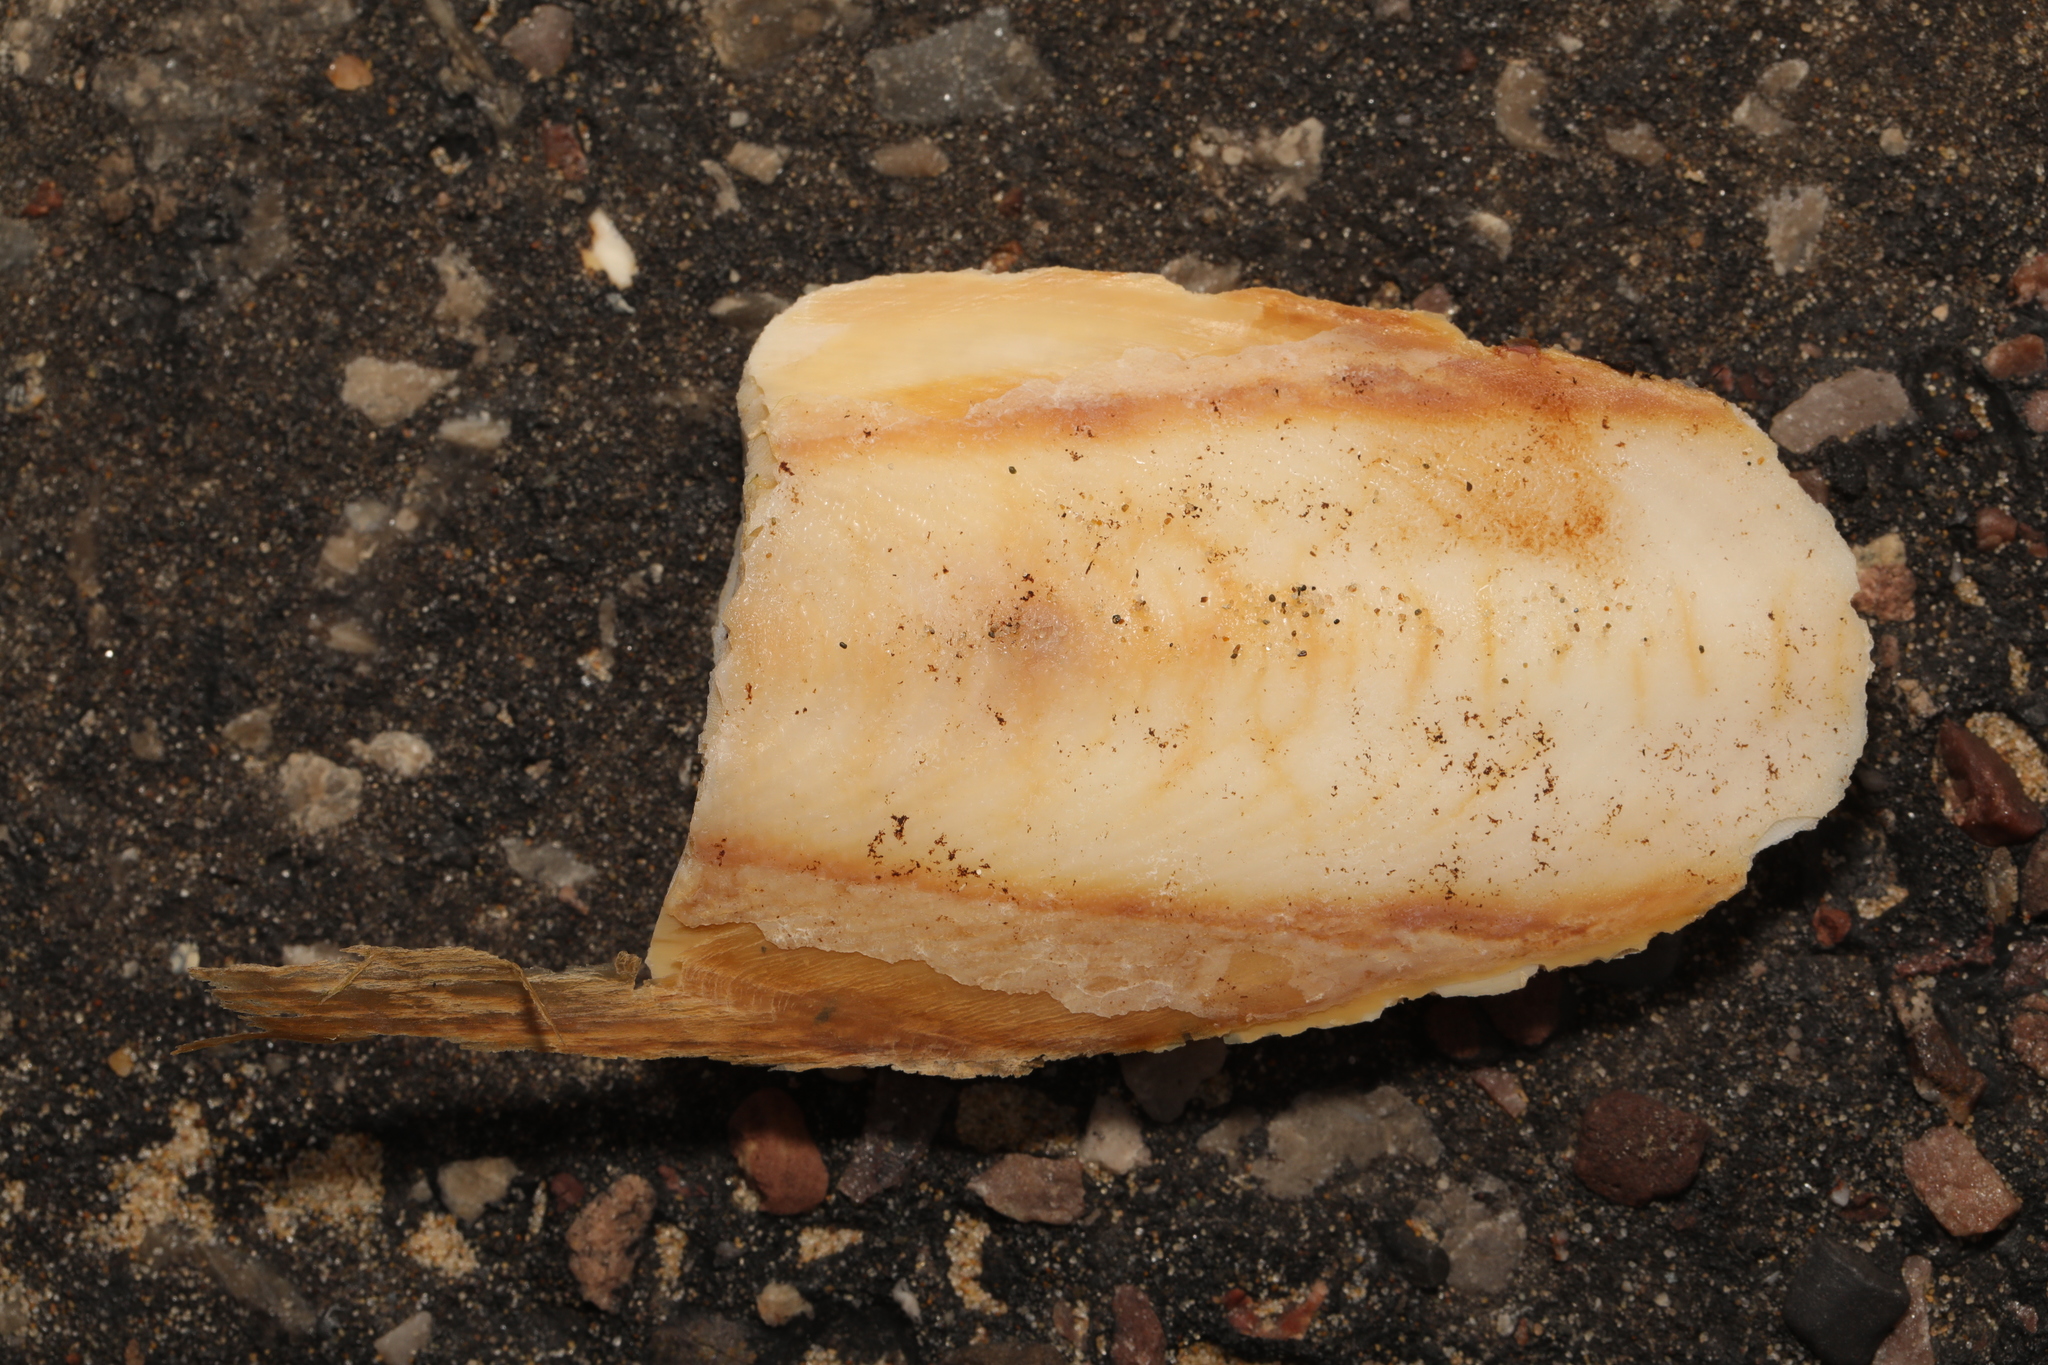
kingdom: Animalia
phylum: Mollusca
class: Cephalopoda
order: Sepiida
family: Sepiidae
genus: Sepia
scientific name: Sepia officinalis
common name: Common cuttlefish
